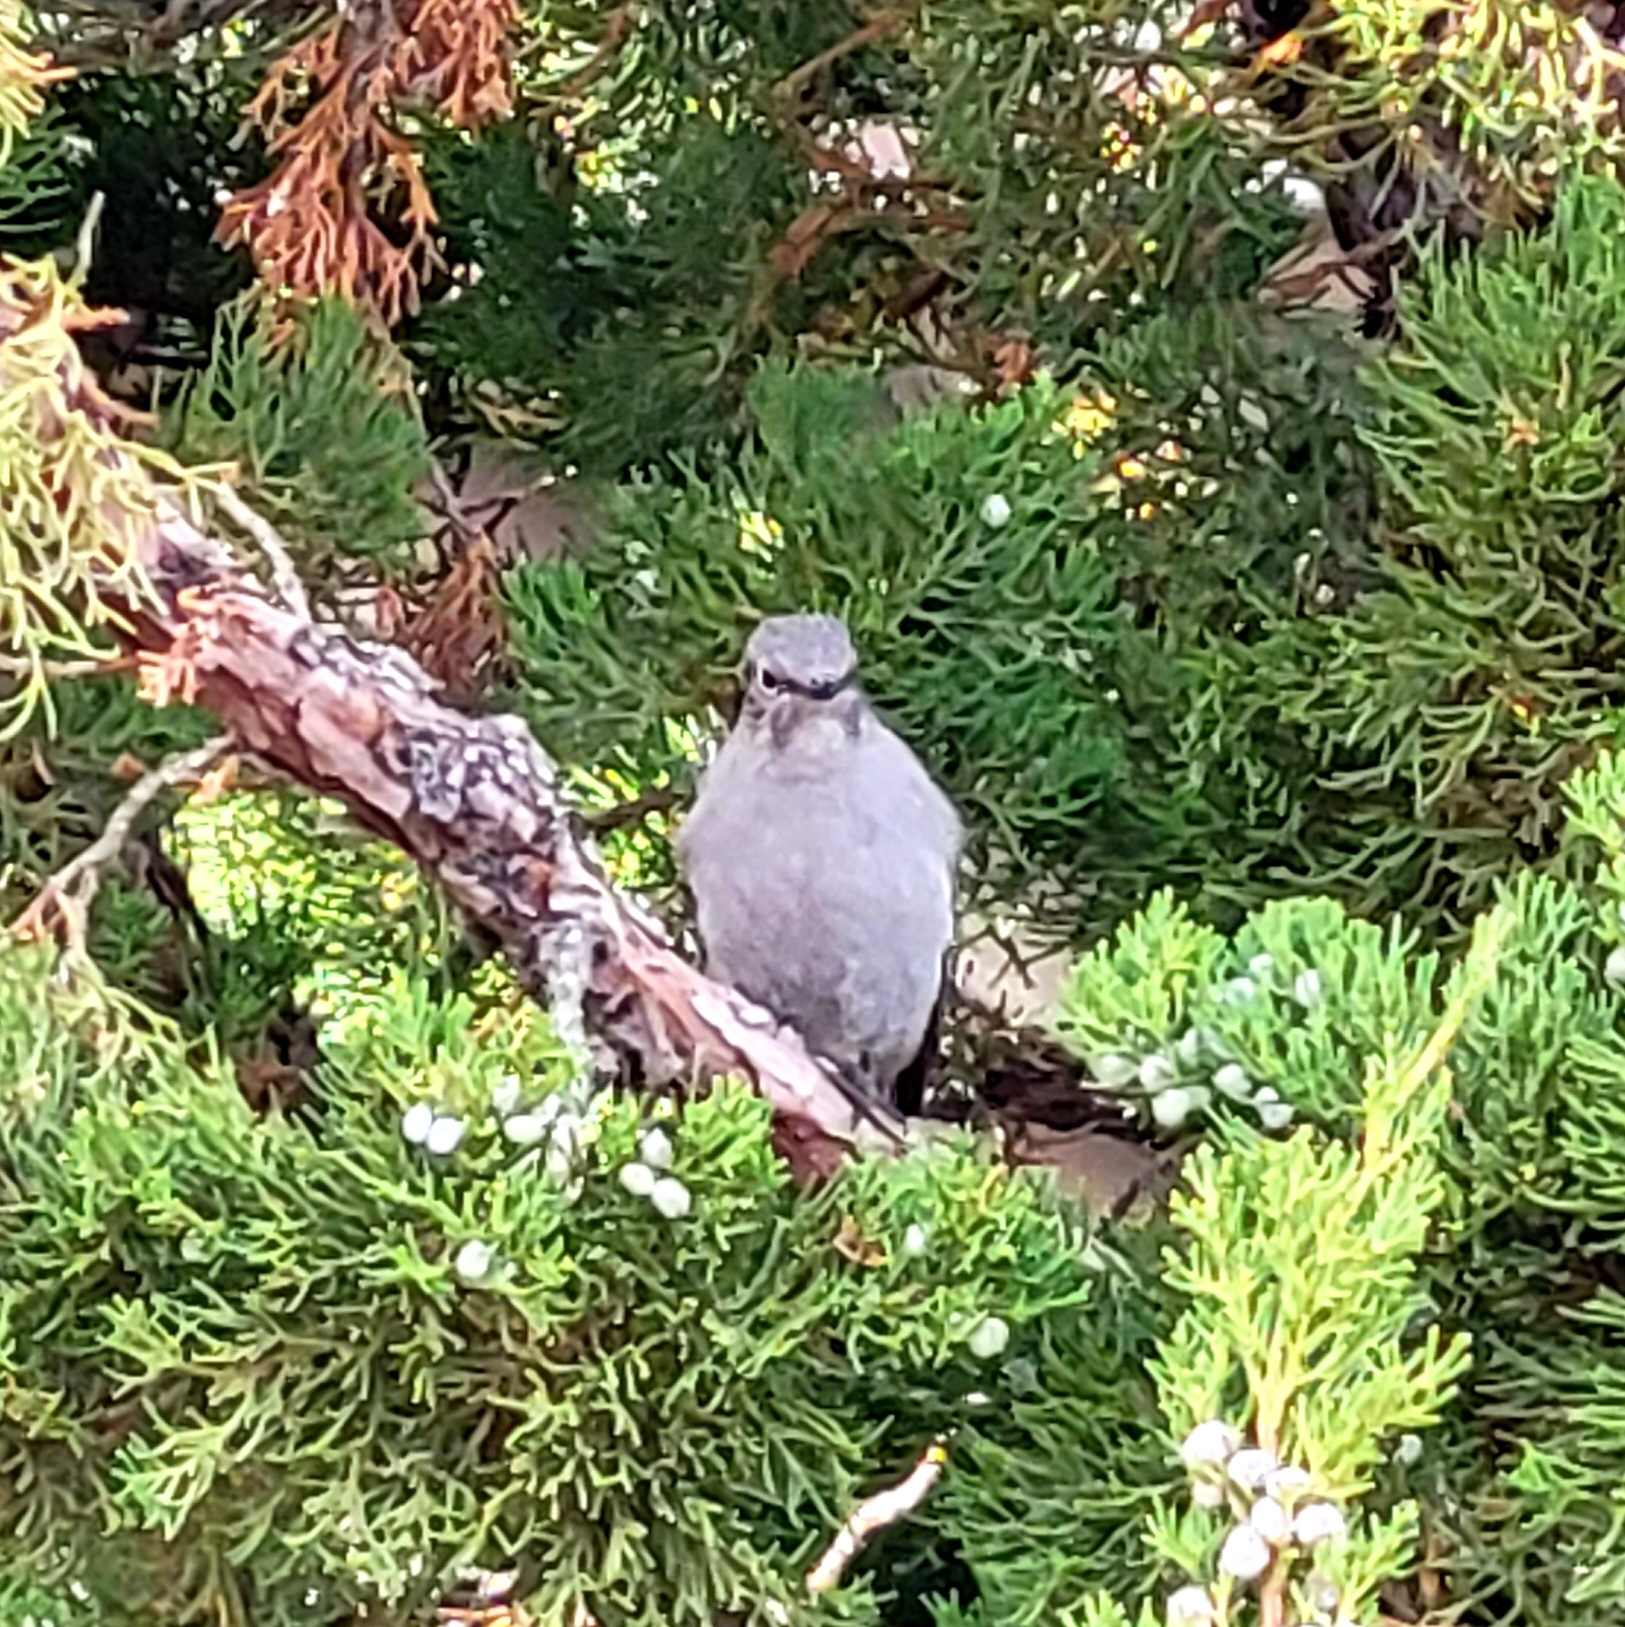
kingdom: Animalia
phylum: Chordata
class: Aves
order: Passeriformes
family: Turdidae
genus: Myadestes
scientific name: Myadestes townsendi
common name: Townsend's solitaire
